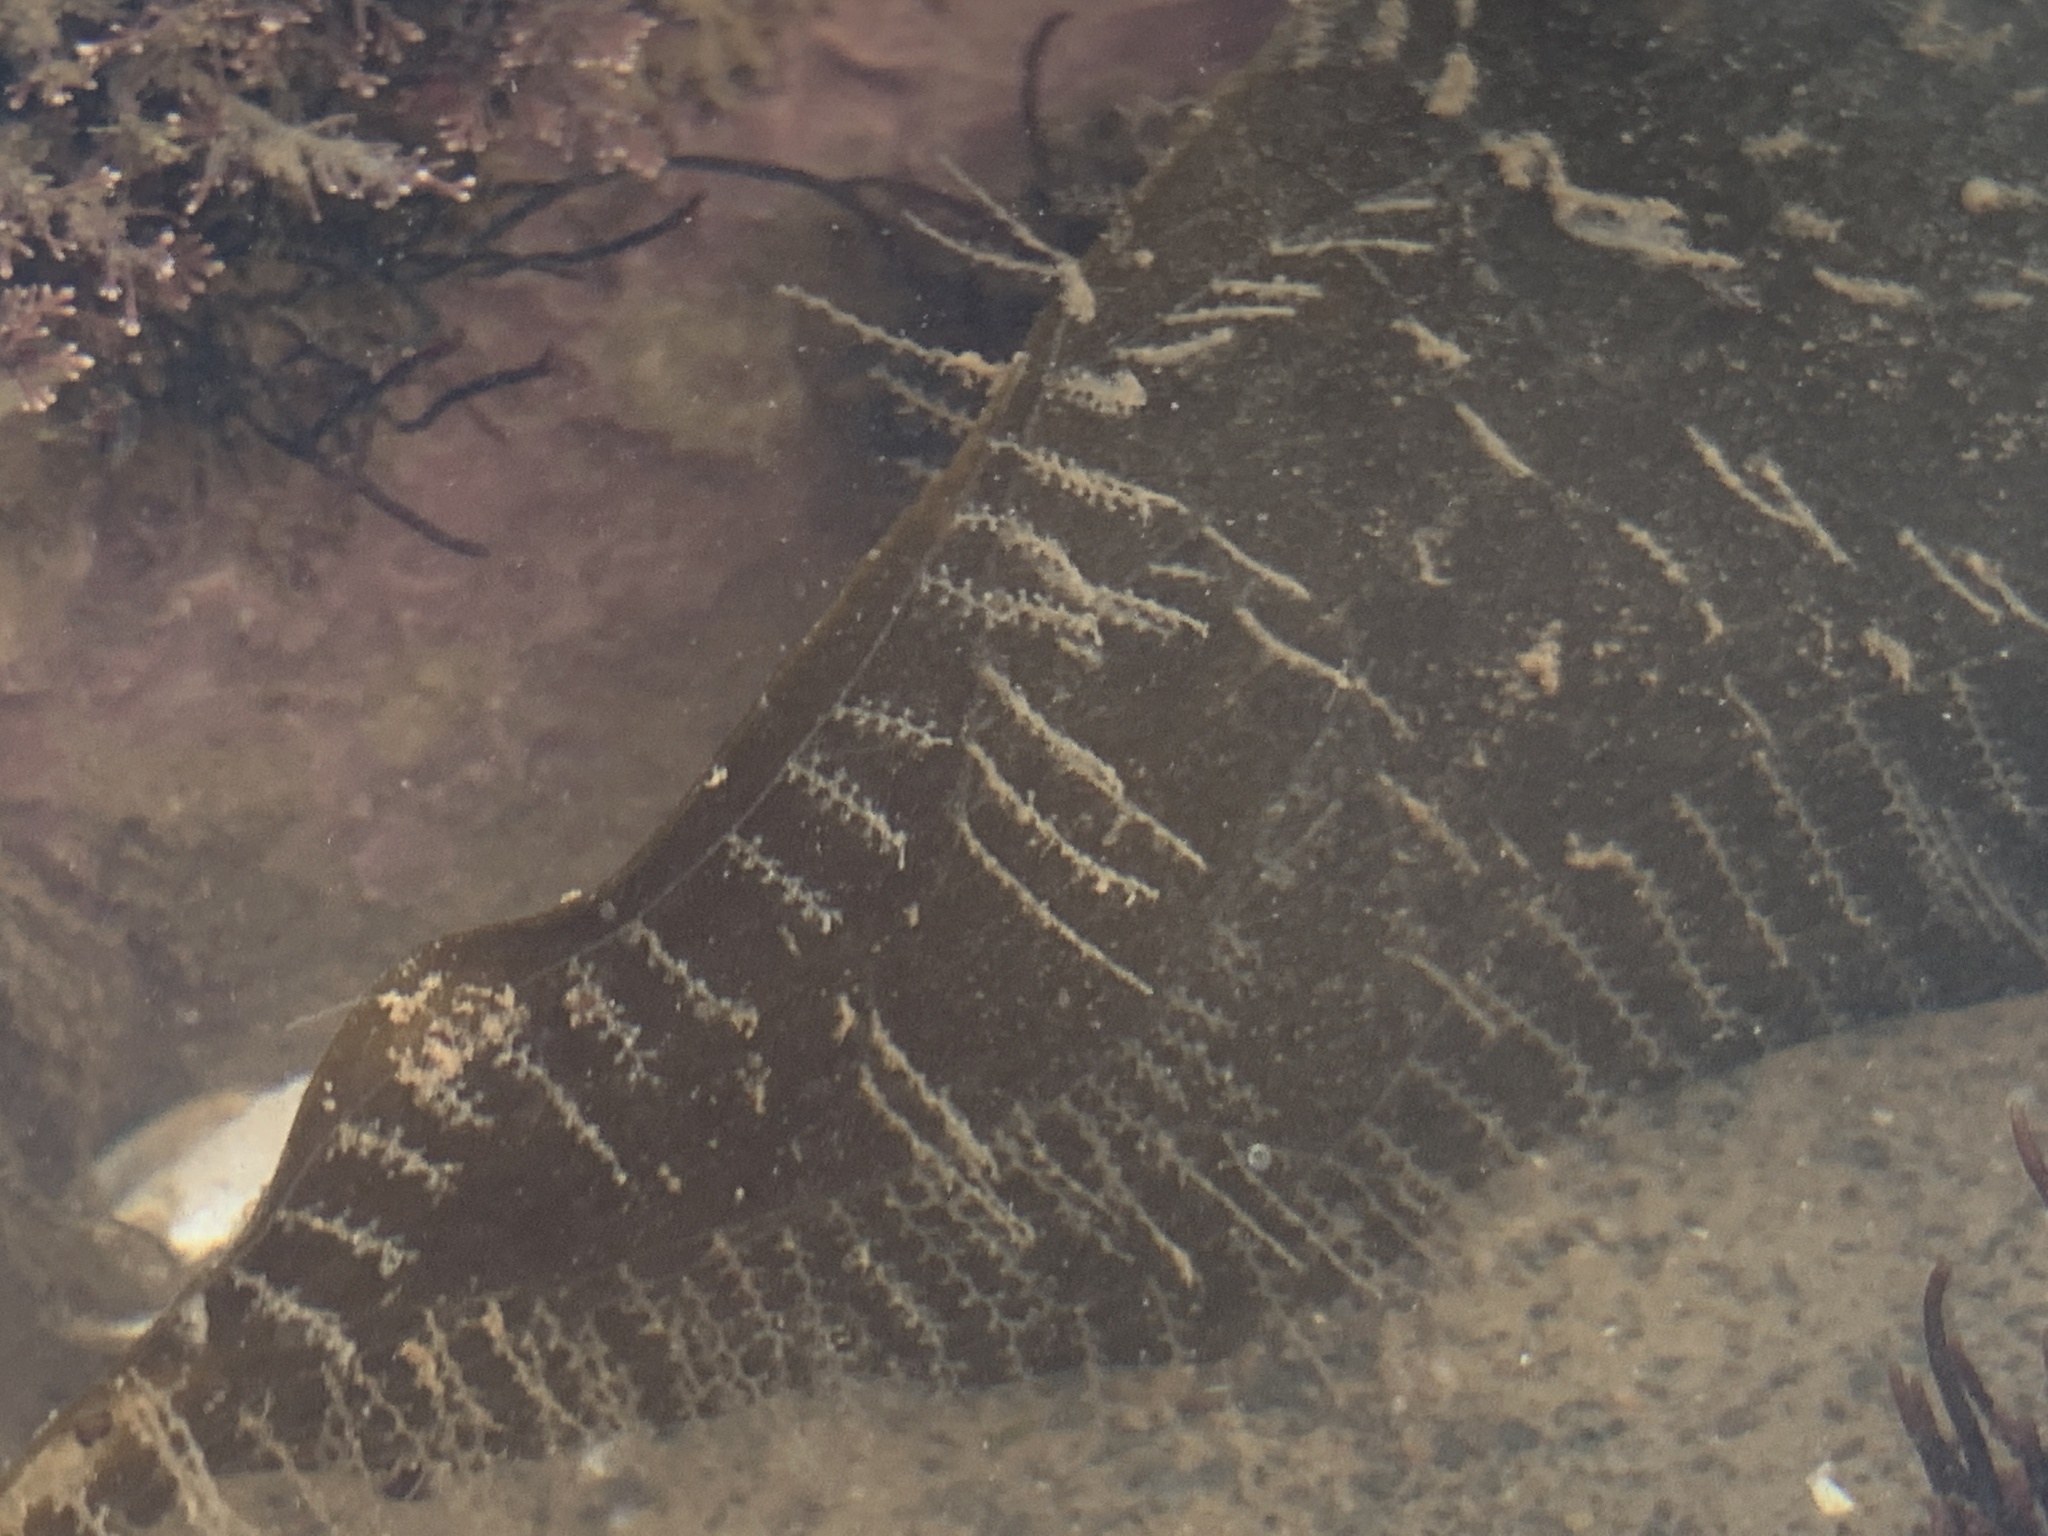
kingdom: Animalia
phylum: Cnidaria
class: Hydrozoa
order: Leptothecata
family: Campanulariidae
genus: Obelia
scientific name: Obelia geniculata
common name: Bell hydroid
